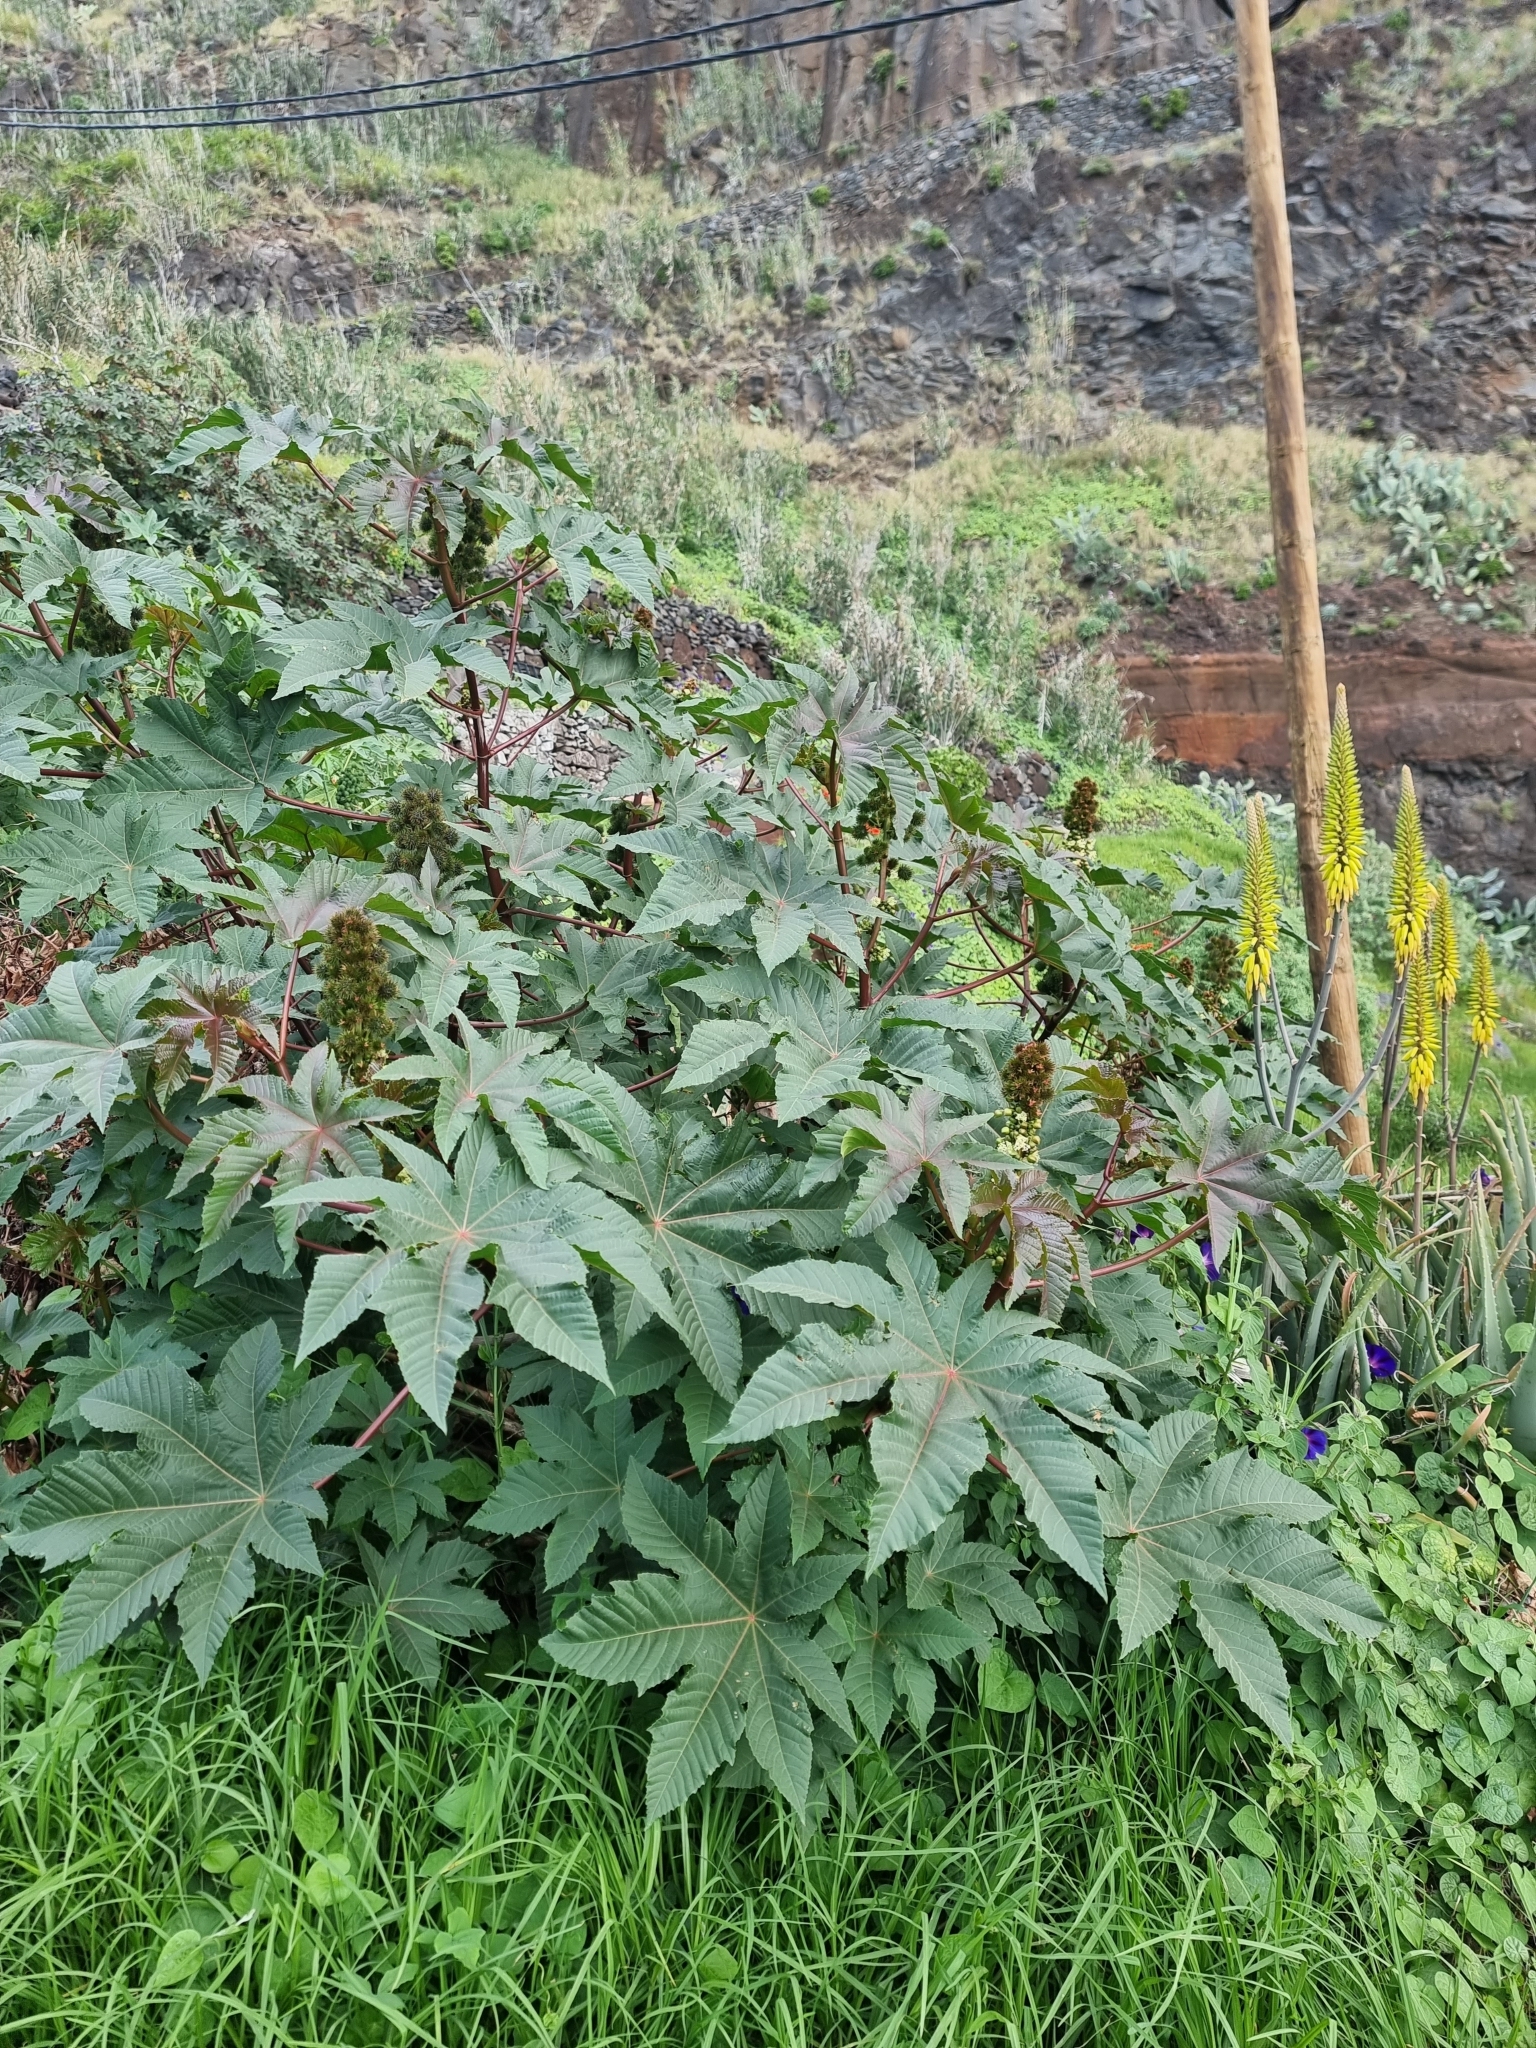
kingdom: Plantae
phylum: Tracheophyta
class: Magnoliopsida
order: Malpighiales
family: Euphorbiaceae
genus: Ricinus
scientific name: Ricinus communis
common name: Castor-oil-plant
